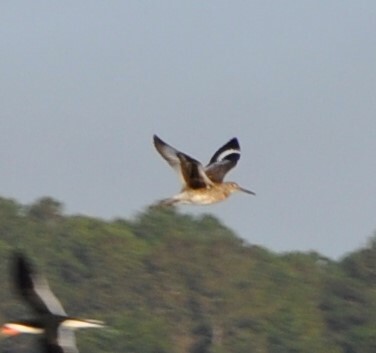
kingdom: Animalia
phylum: Chordata
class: Aves
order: Charadriiformes
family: Scolopacidae
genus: Tringa
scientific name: Tringa semipalmata
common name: Willet
